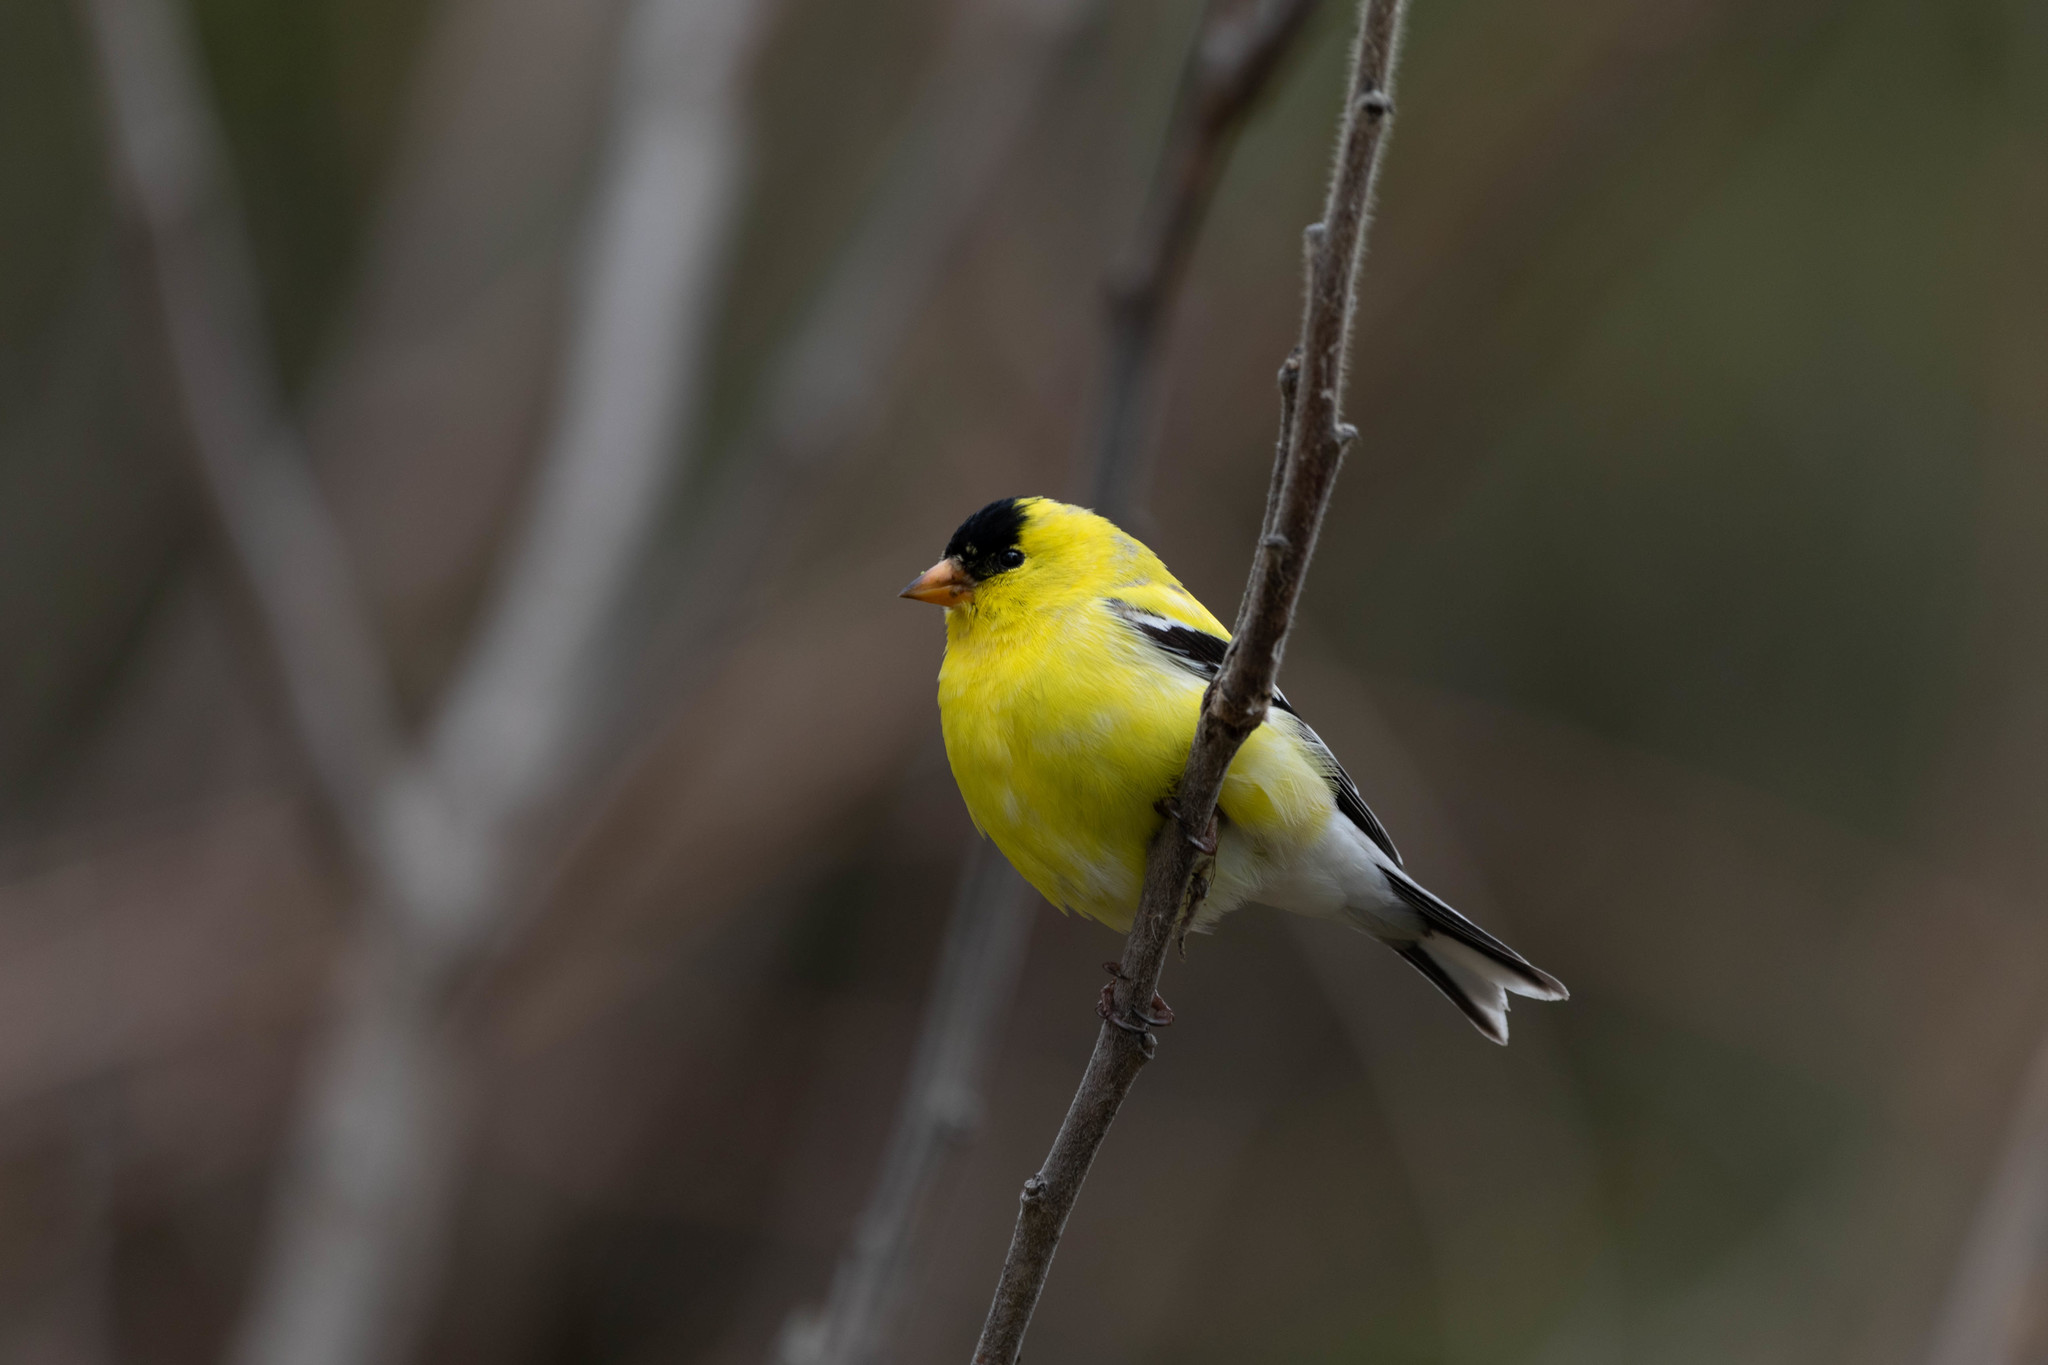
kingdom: Animalia
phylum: Chordata
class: Aves
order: Passeriformes
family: Fringillidae
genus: Spinus
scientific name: Spinus tristis
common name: American goldfinch
